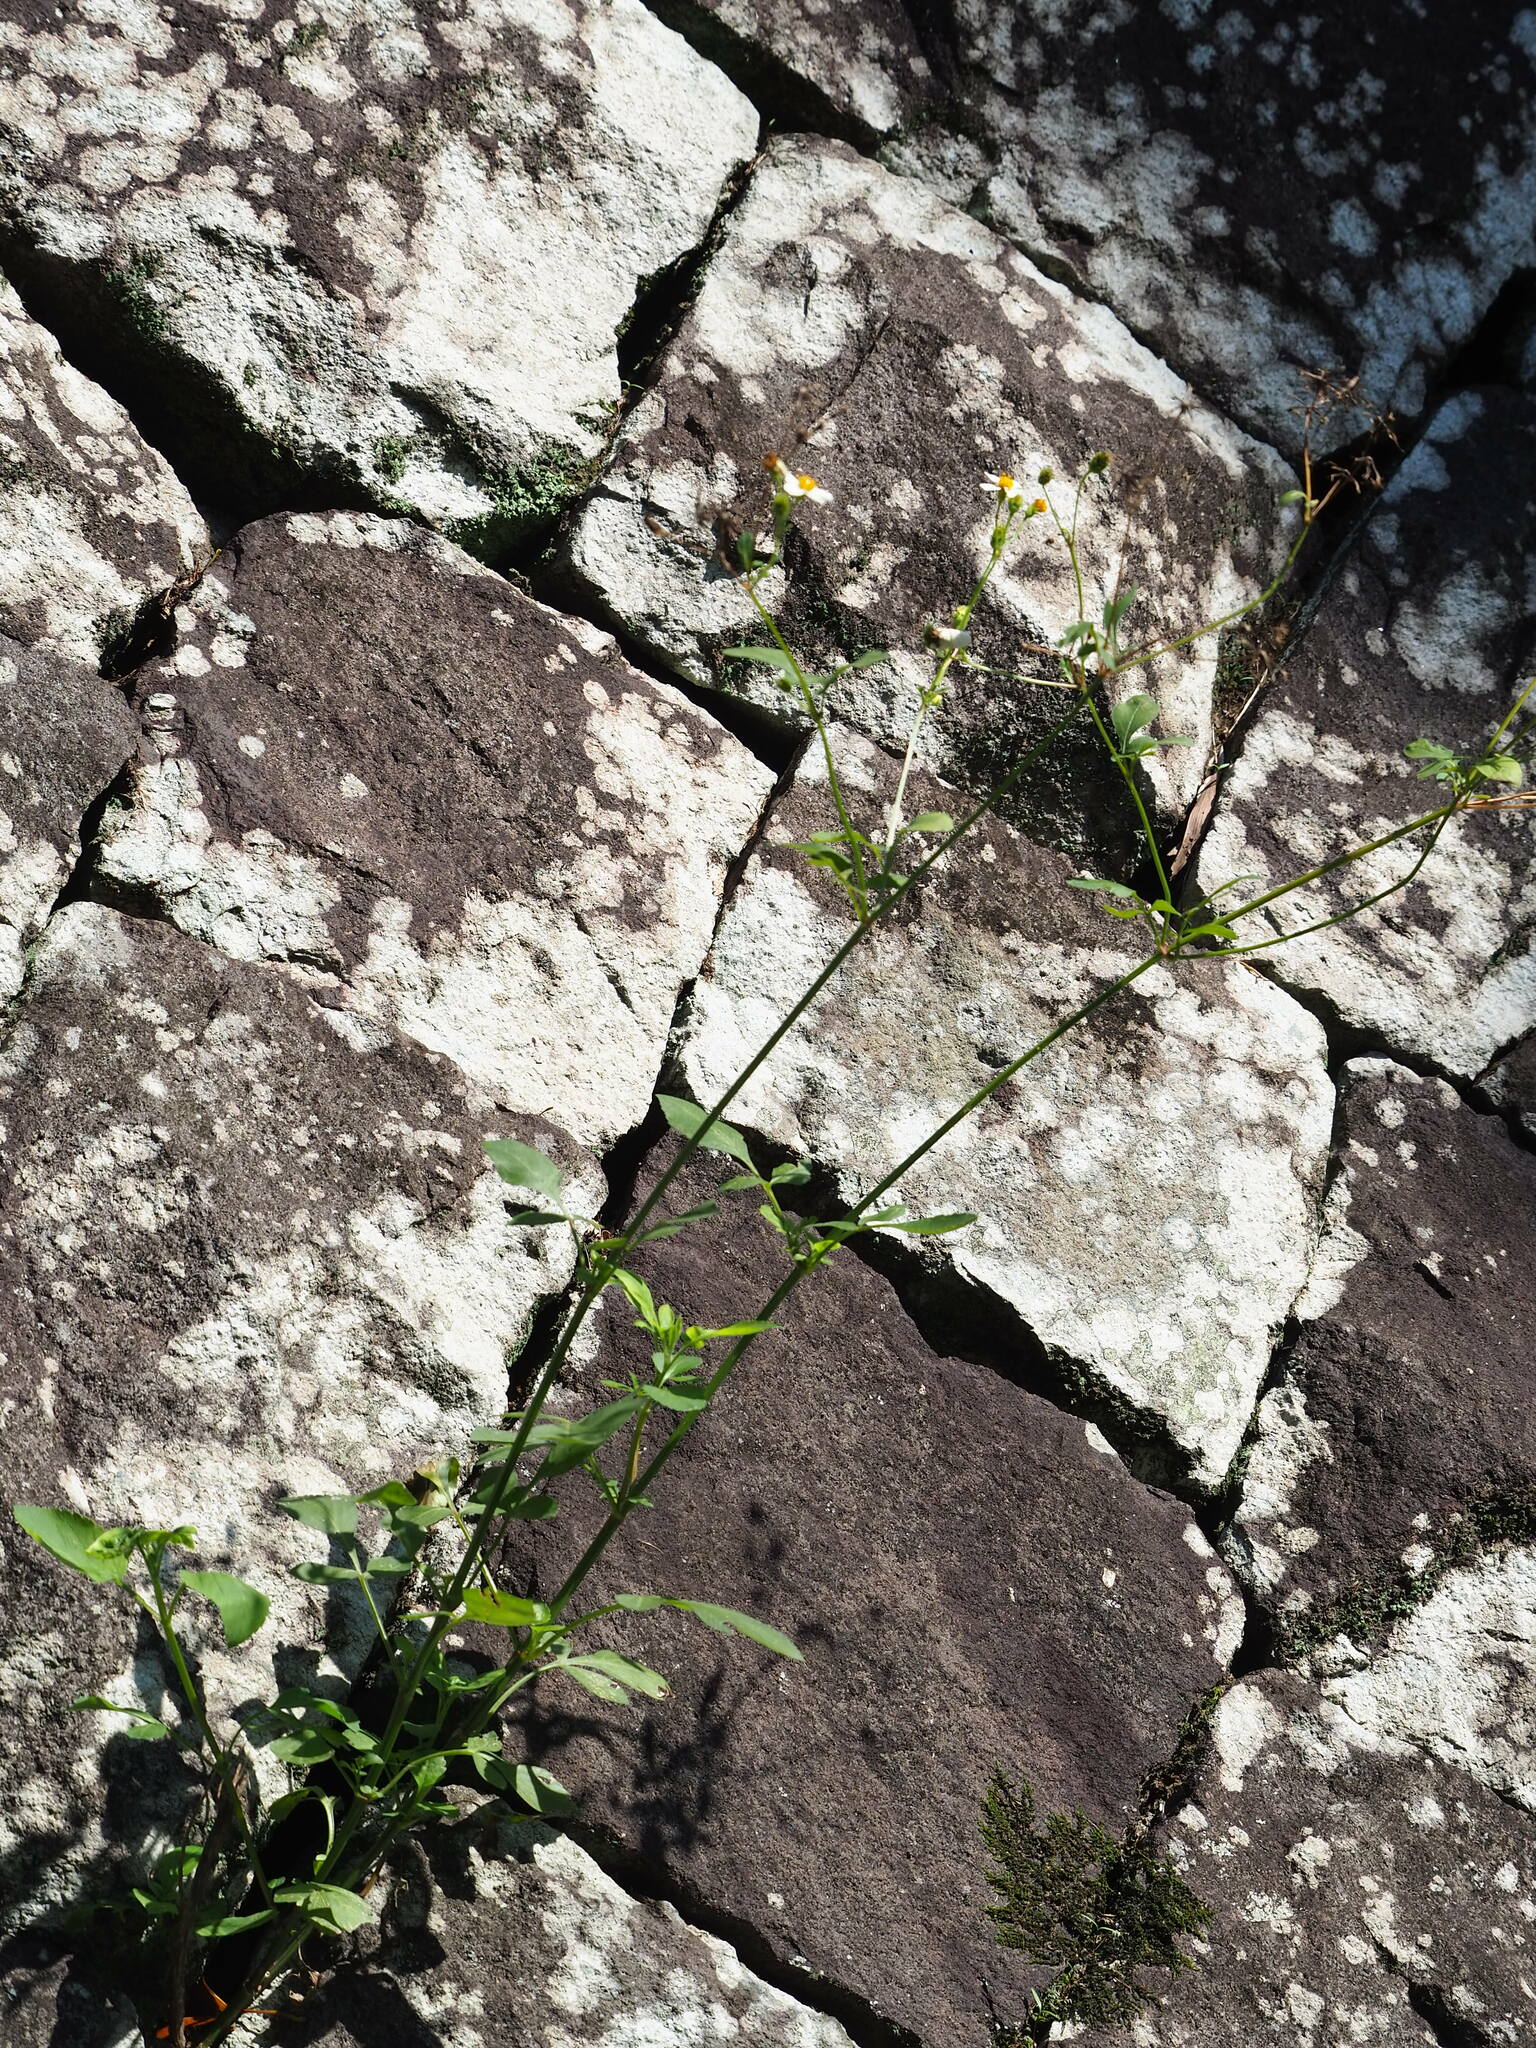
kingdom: Plantae
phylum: Tracheophyta
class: Magnoliopsida
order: Asterales
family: Asteraceae
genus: Bidens
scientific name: Bidens alba
